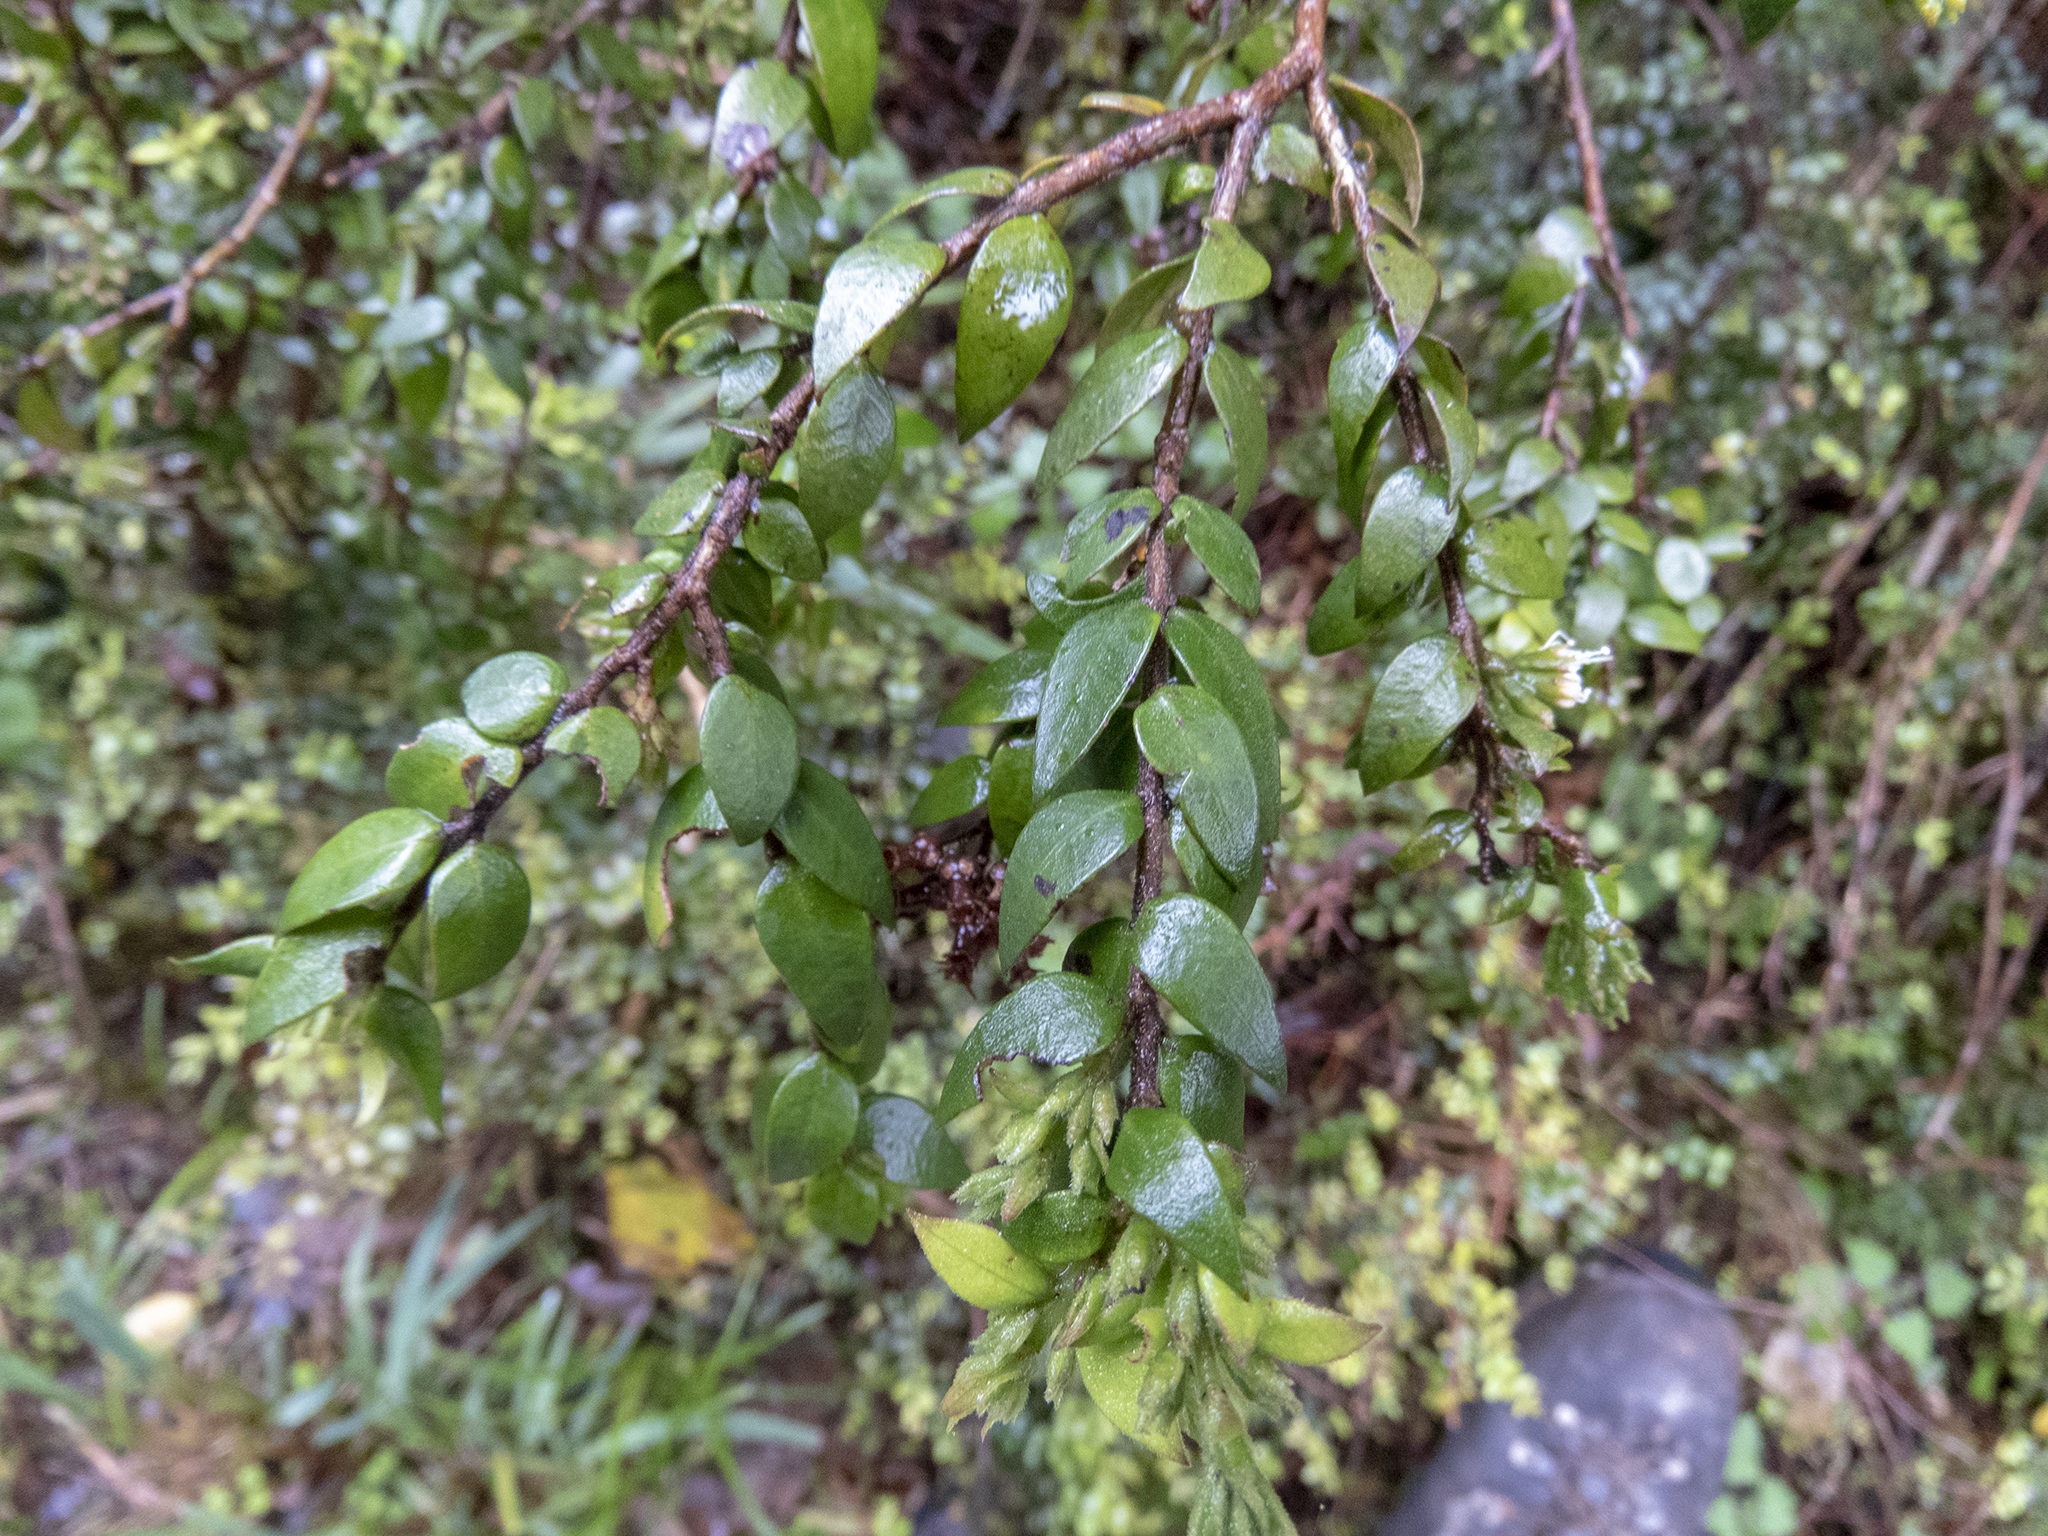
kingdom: Plantae
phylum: Tracheophyta
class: Magnoliopsida
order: Myrtales
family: Myrtaceae
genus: Metrosideros
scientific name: Metrosideros colensoi
